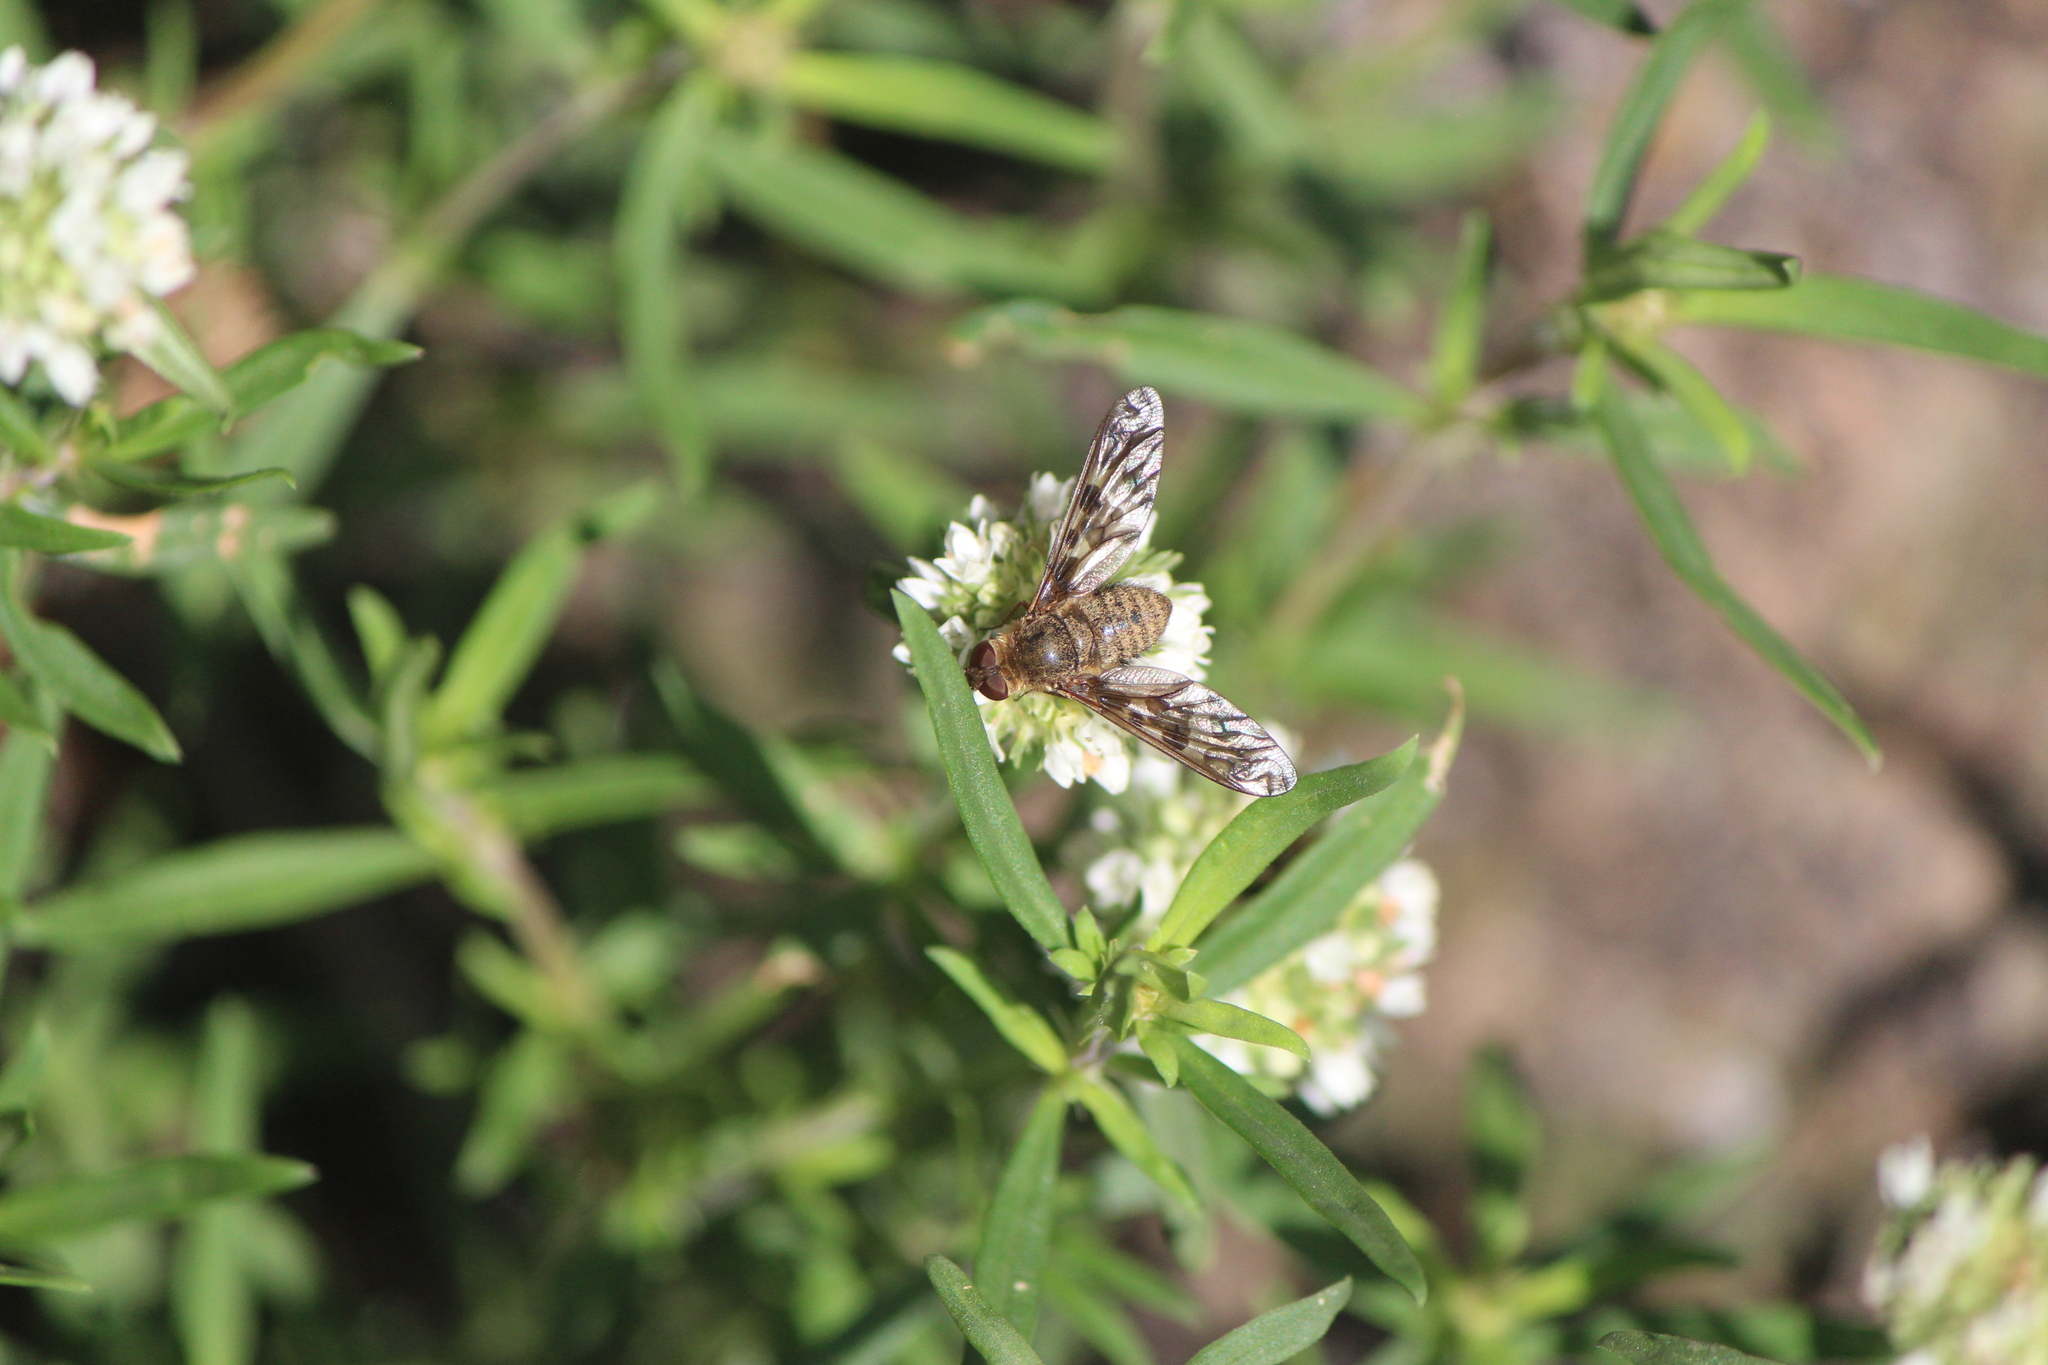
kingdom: Animalia
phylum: Arthropoda
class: Insecta
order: Diptera
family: Bombyliidae
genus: Dipalta
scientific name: Dipalta serpentina
